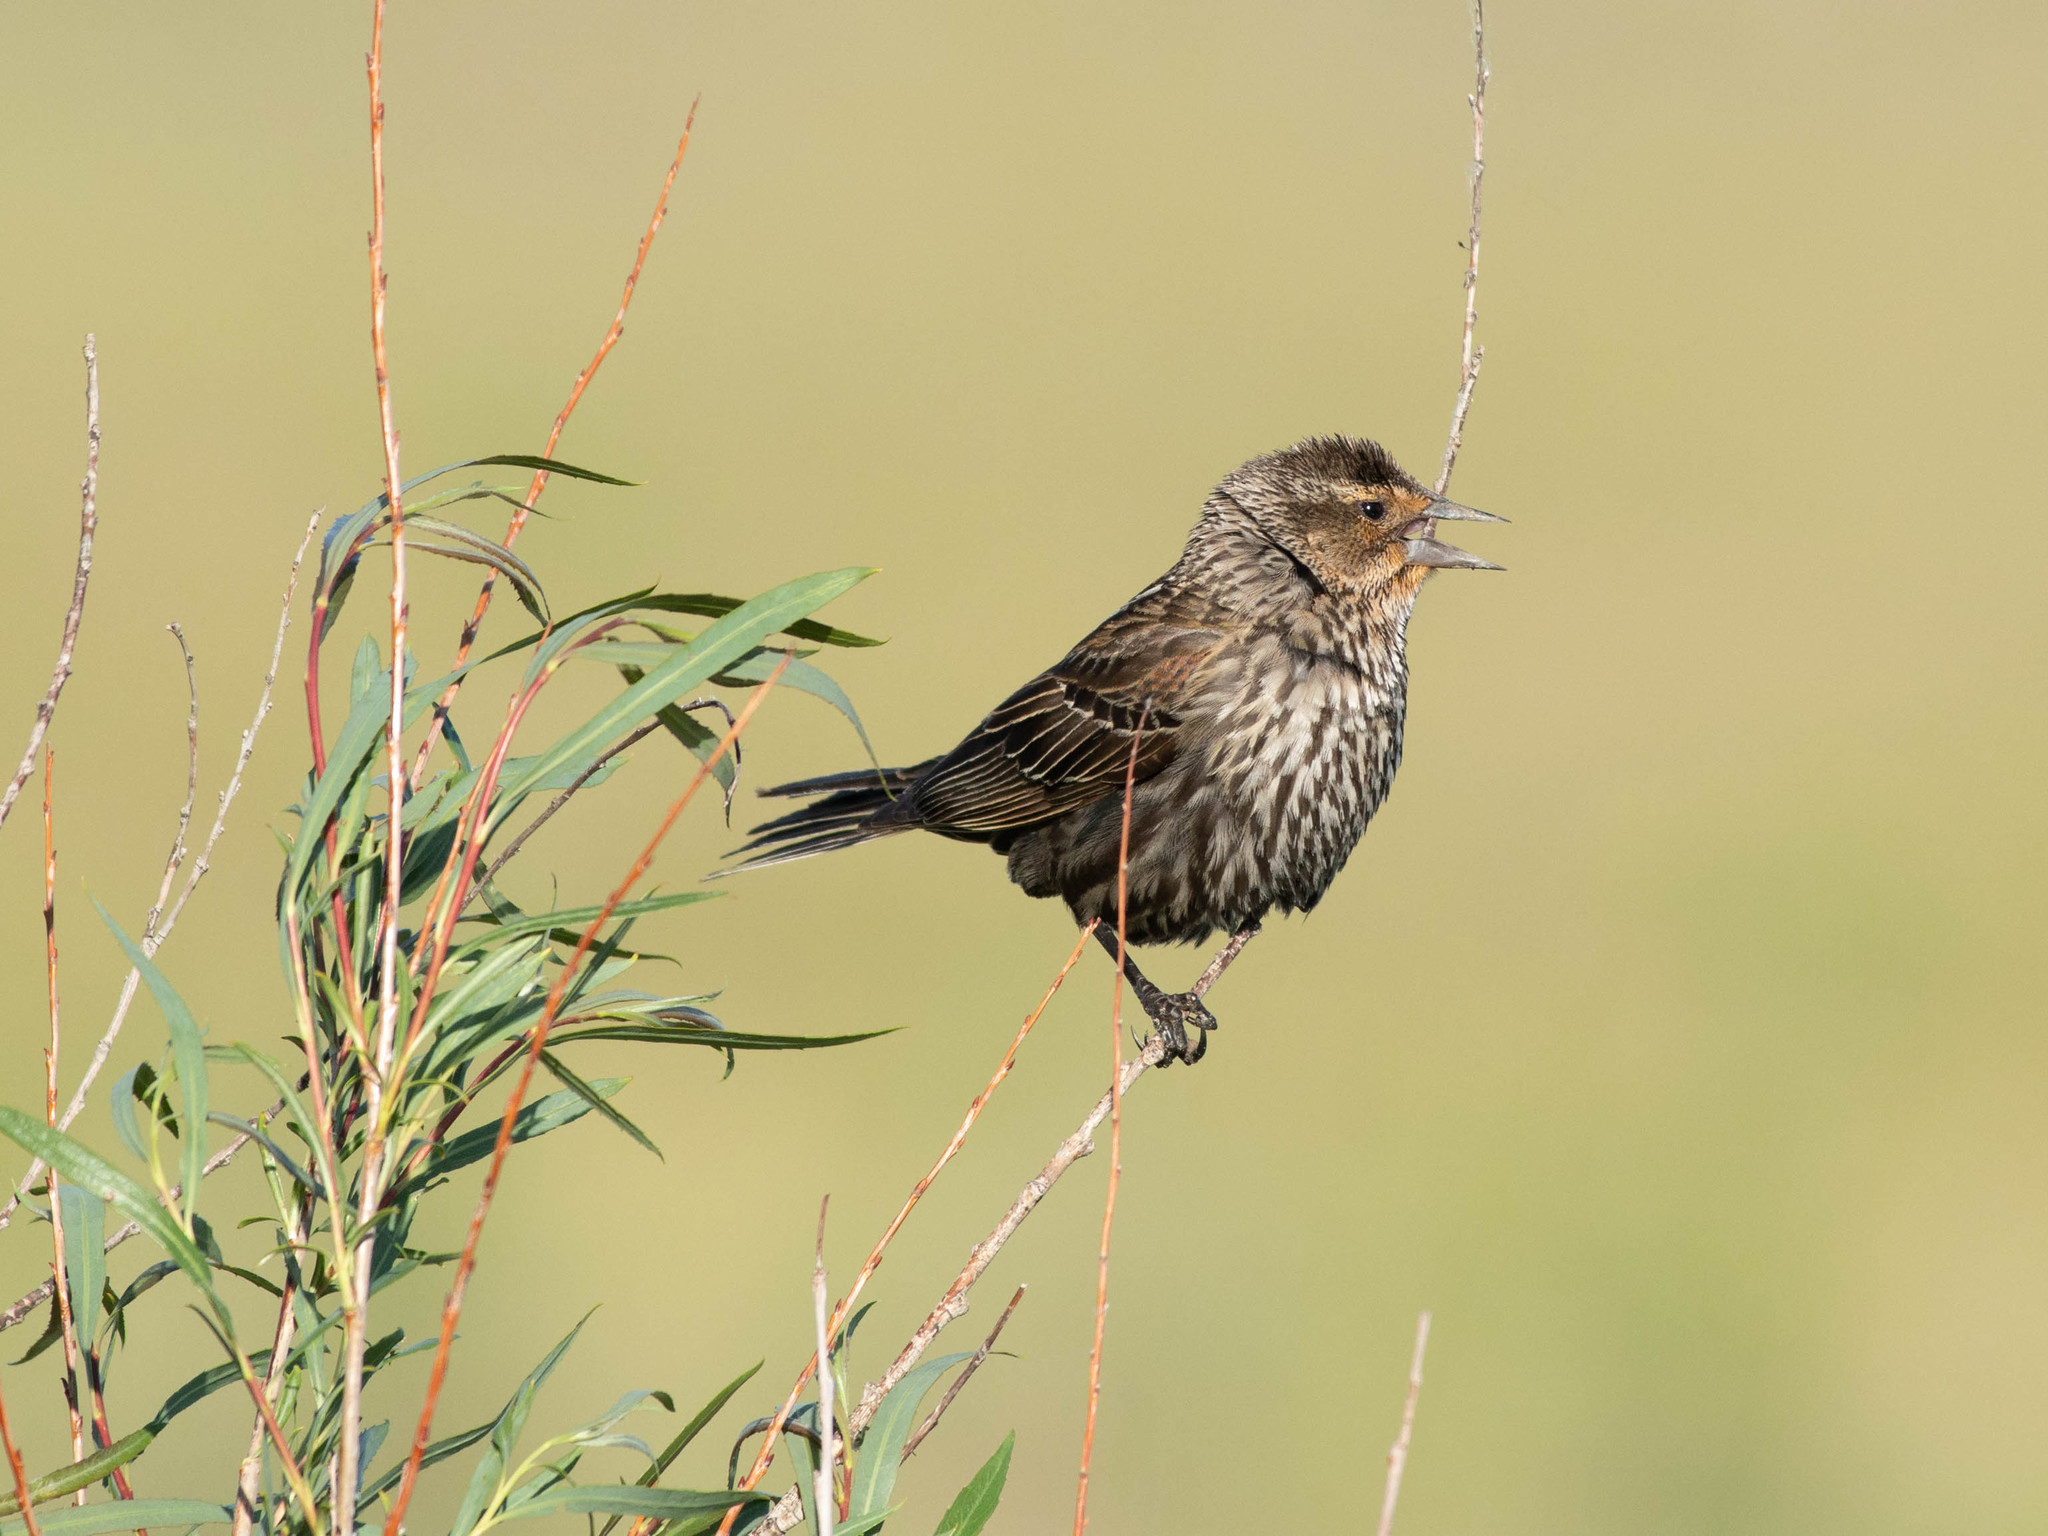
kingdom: Animalia
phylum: Chordata
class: Aves
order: Passeriformes
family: Icteridae
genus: Agelaius
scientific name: Agelaius phoeniceus
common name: Red-winged blackbird
